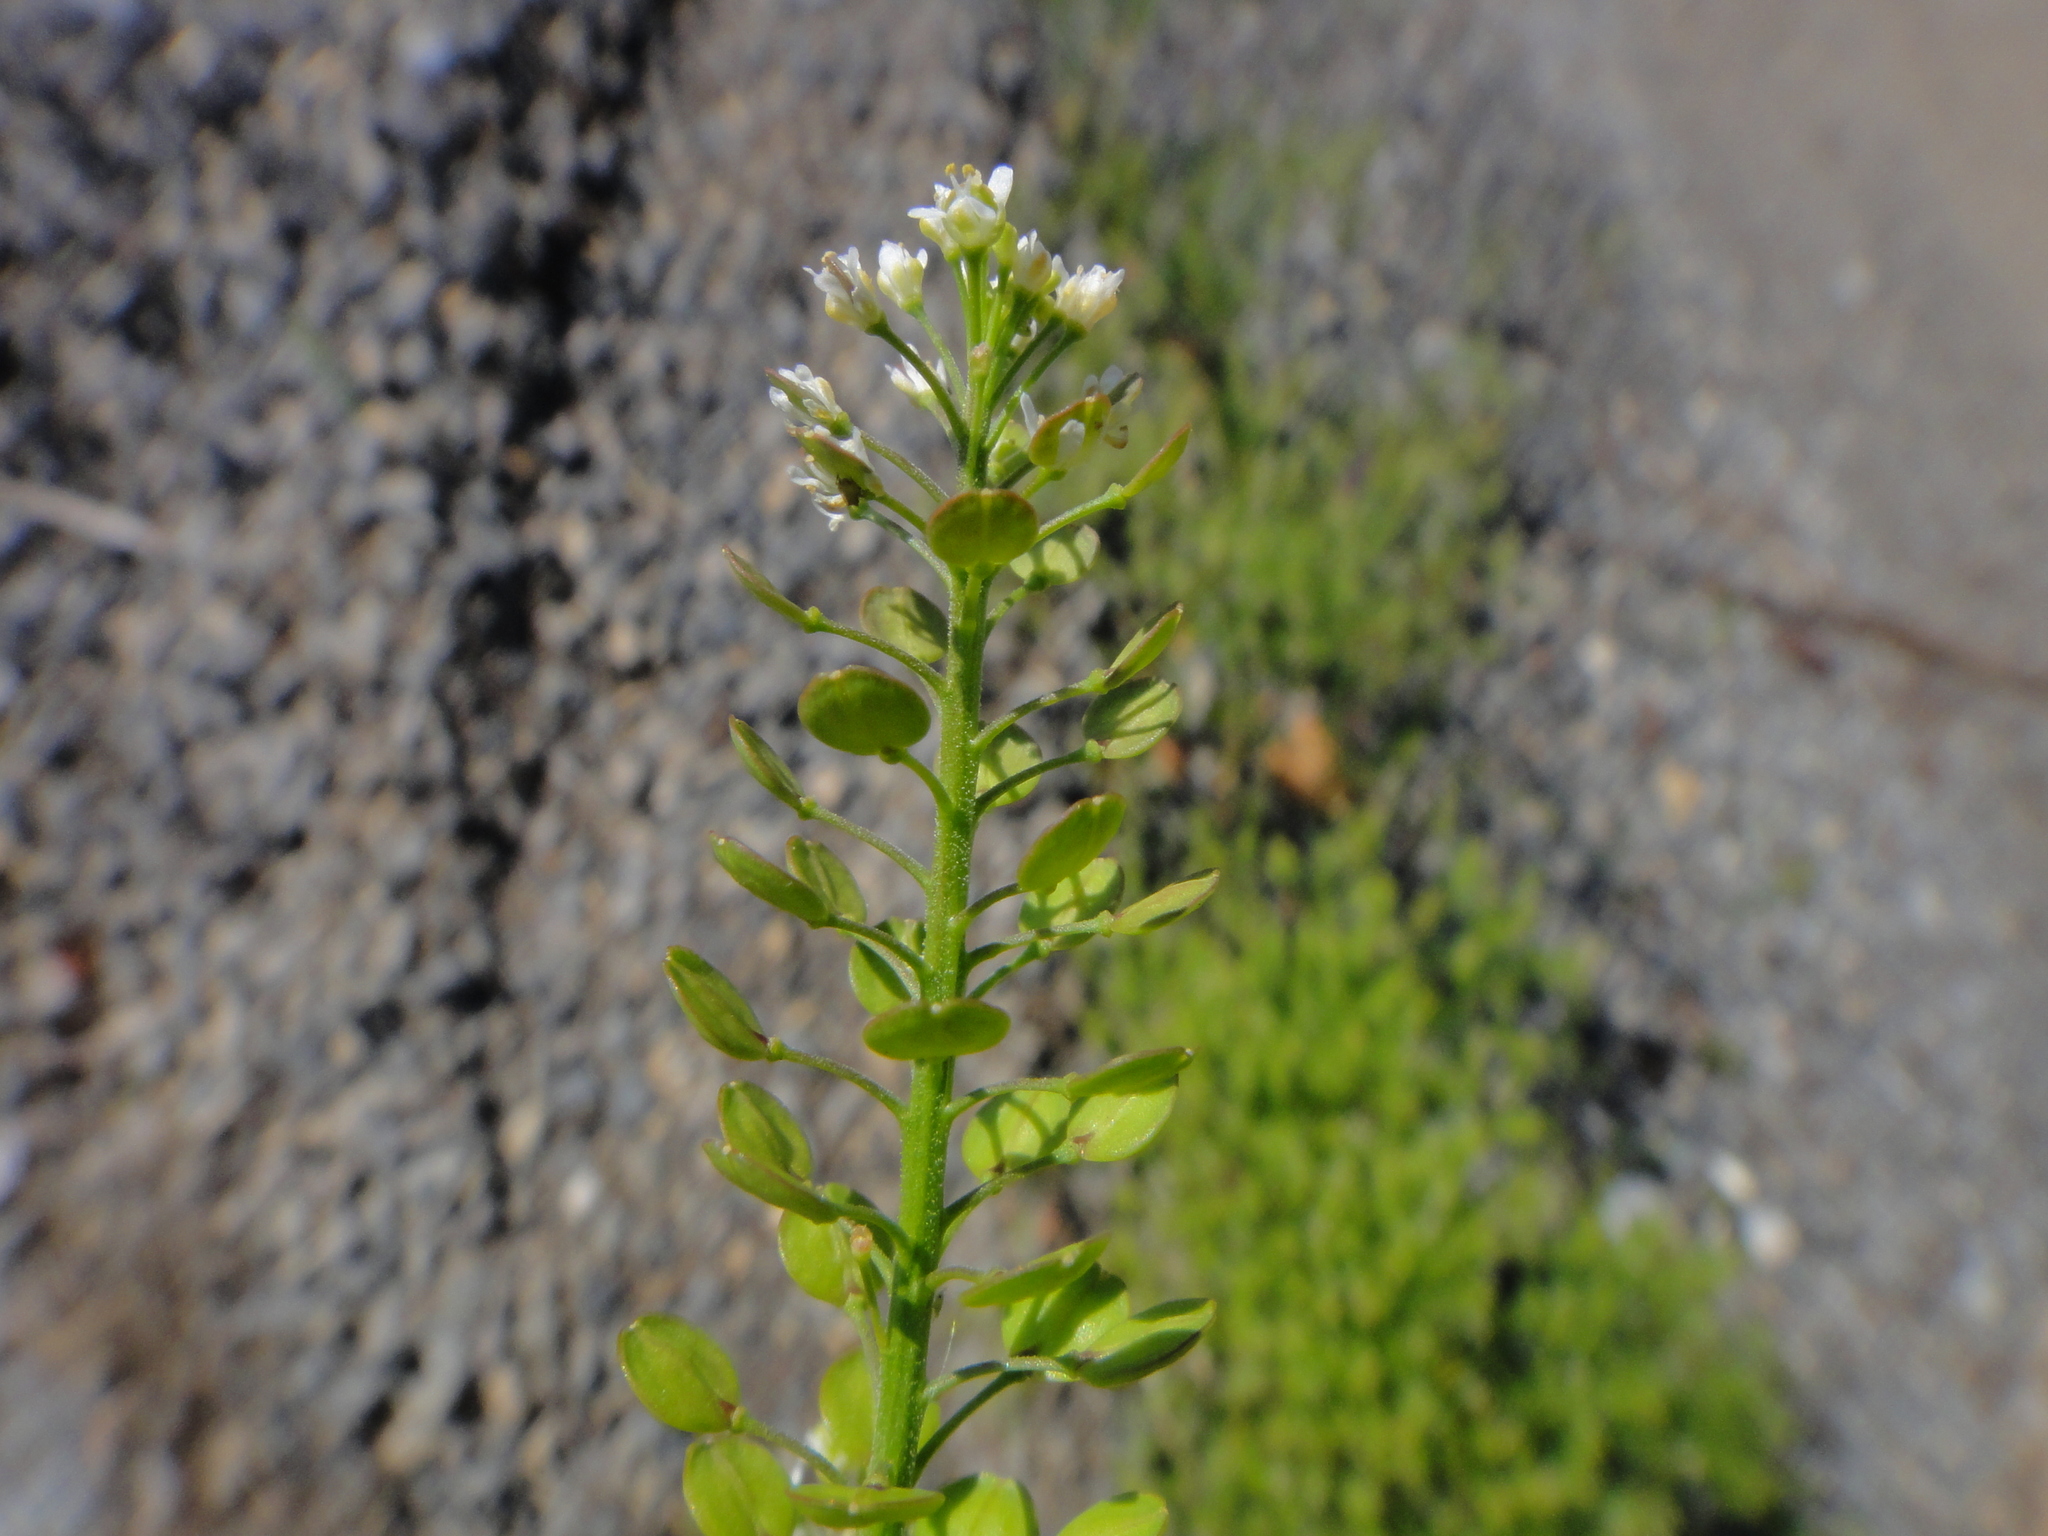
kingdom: Plantae
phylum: Tracheophyta
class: Magnoliopsida
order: Brassicales
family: Brassicaceae
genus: Lepidium
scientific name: Lepidium virginicum
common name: Least pepperwort
